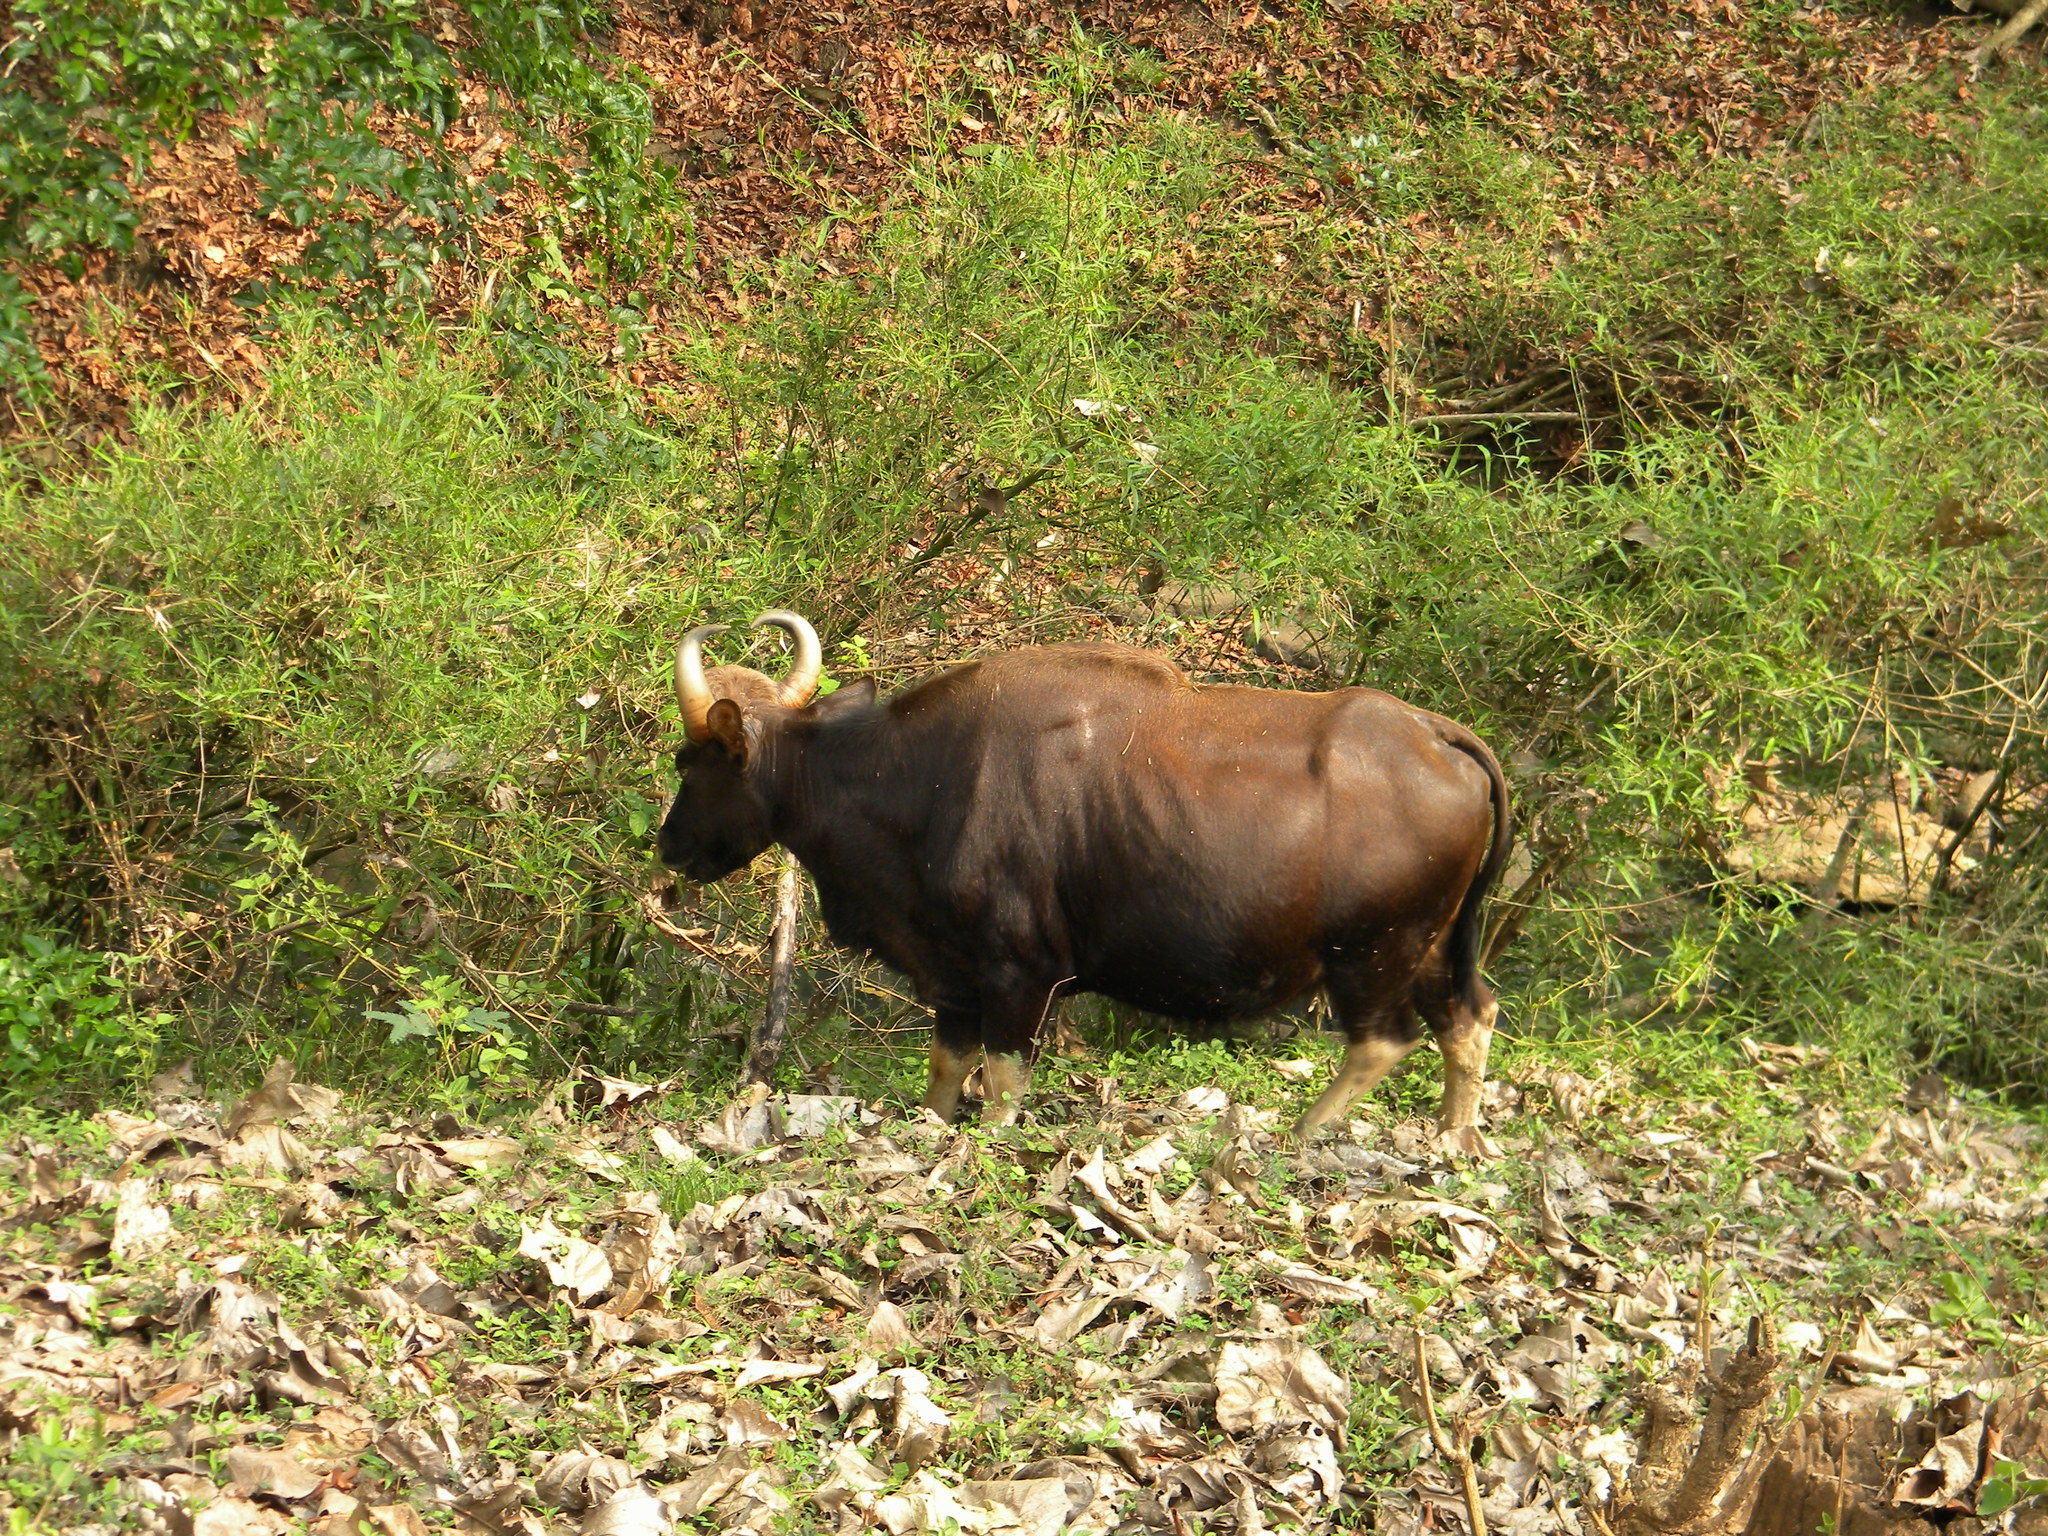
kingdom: Animalia
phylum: Chordata
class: Mammalia
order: Artiodactyla
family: Bovidae
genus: Bos
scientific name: Bos frontalis
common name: Gaur
